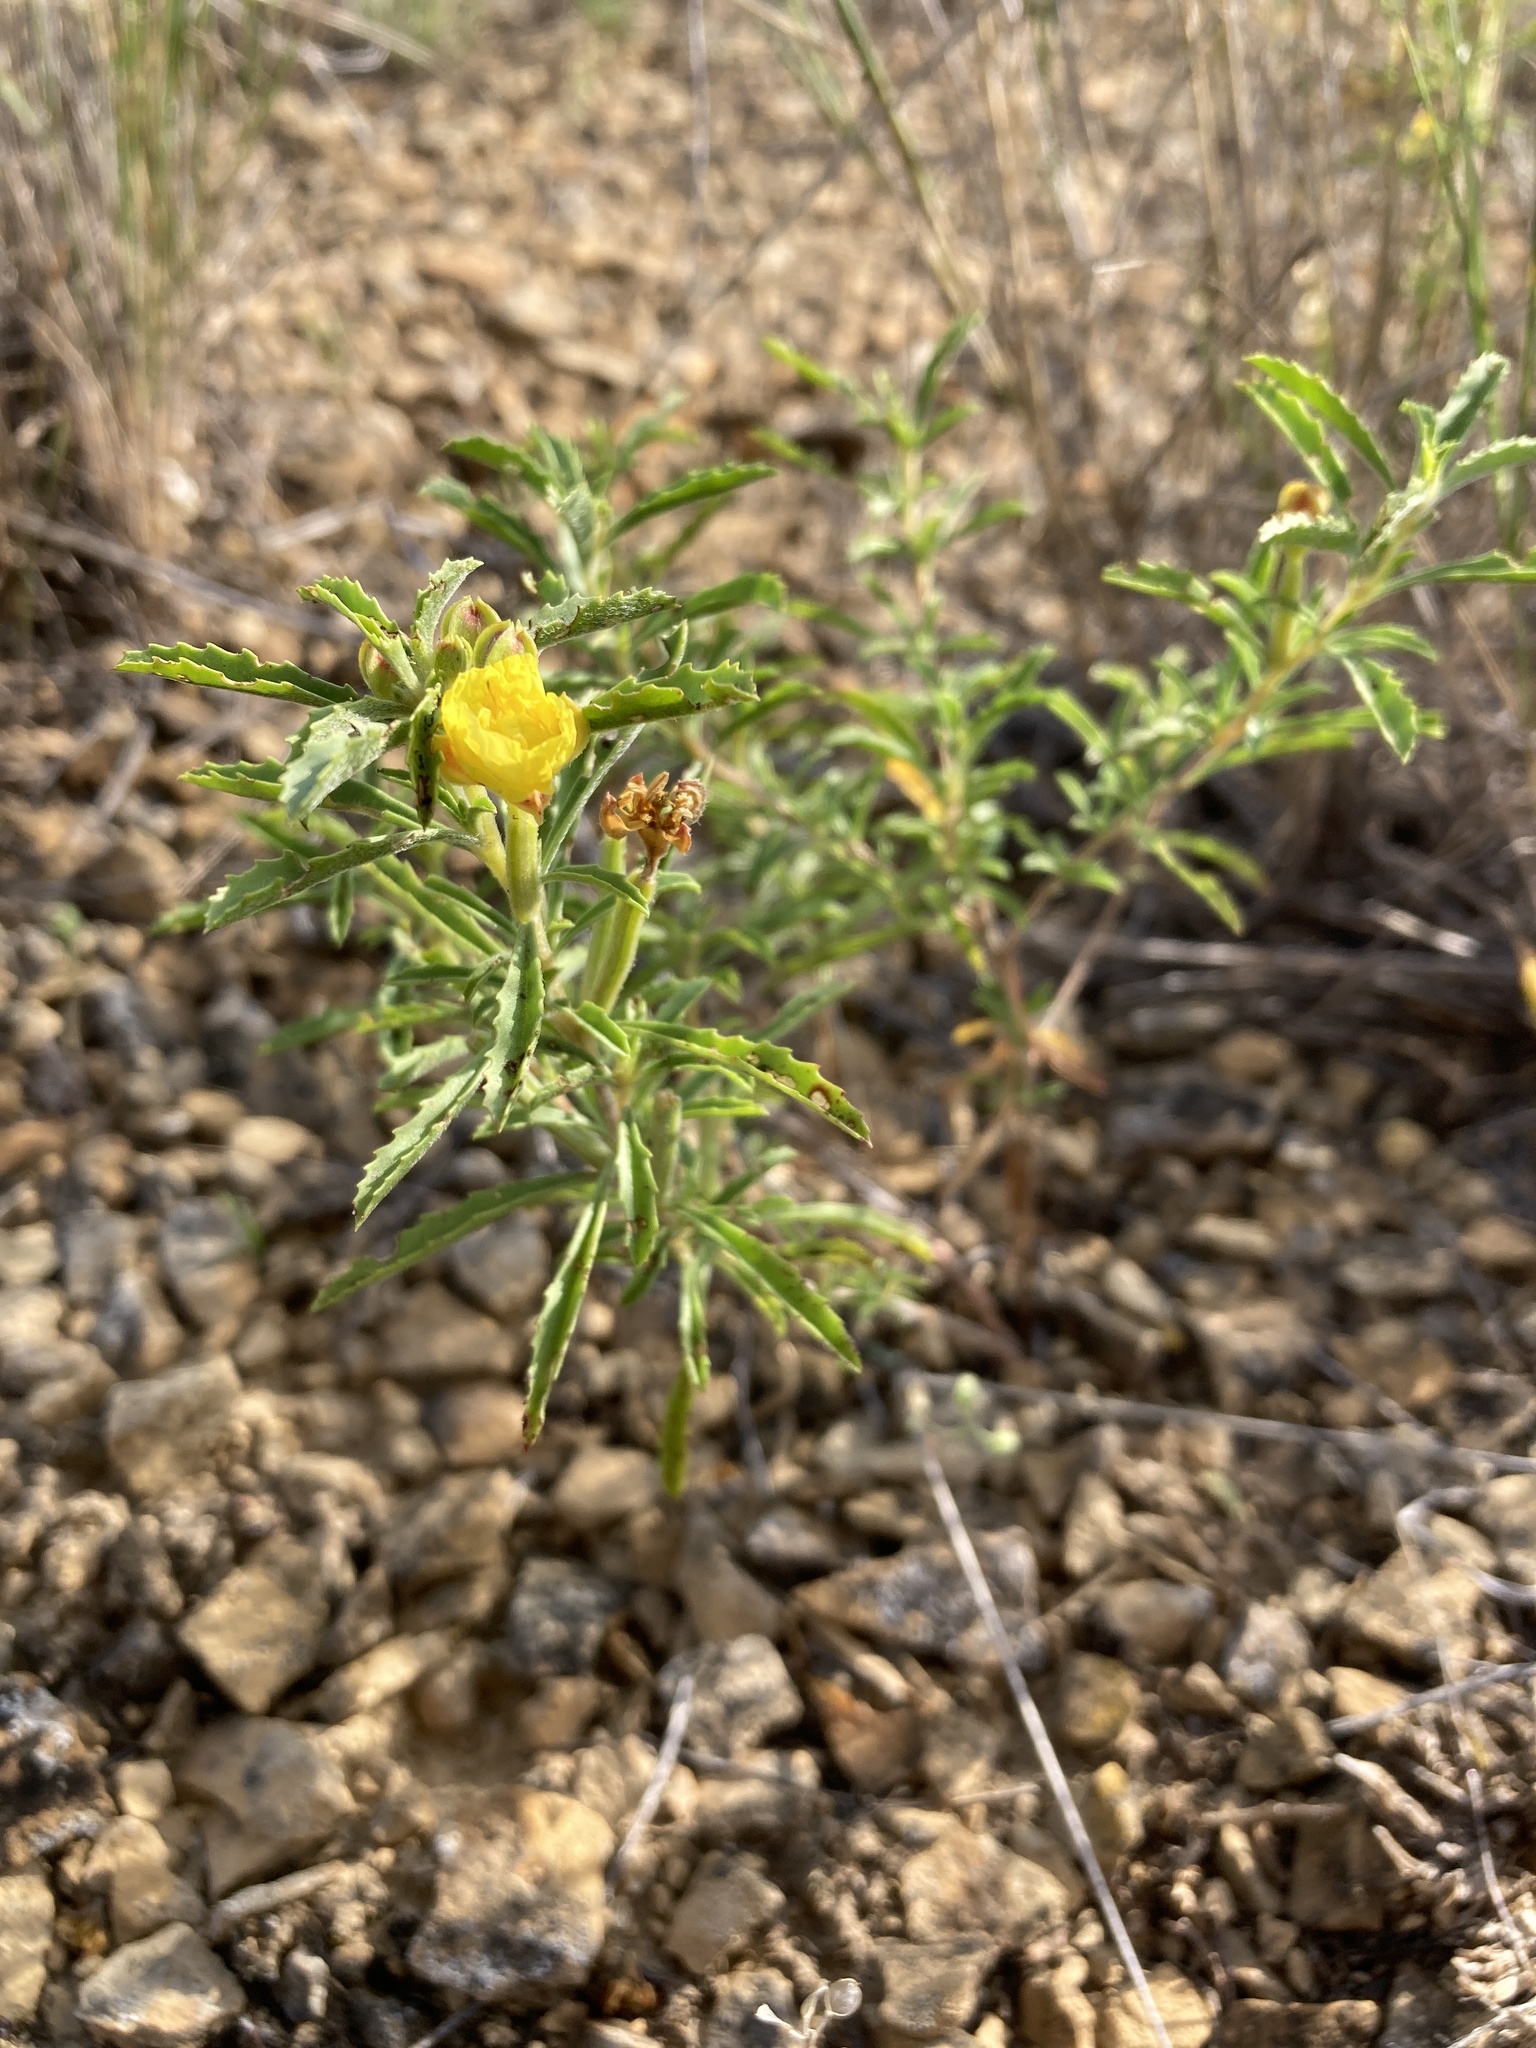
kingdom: Plantae
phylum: Tracheophyta
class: Magnoliopsida
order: Myrtales
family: Onagraceae
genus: Oenothera
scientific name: Oenothera serrulata
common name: Half-shrub calylophus
